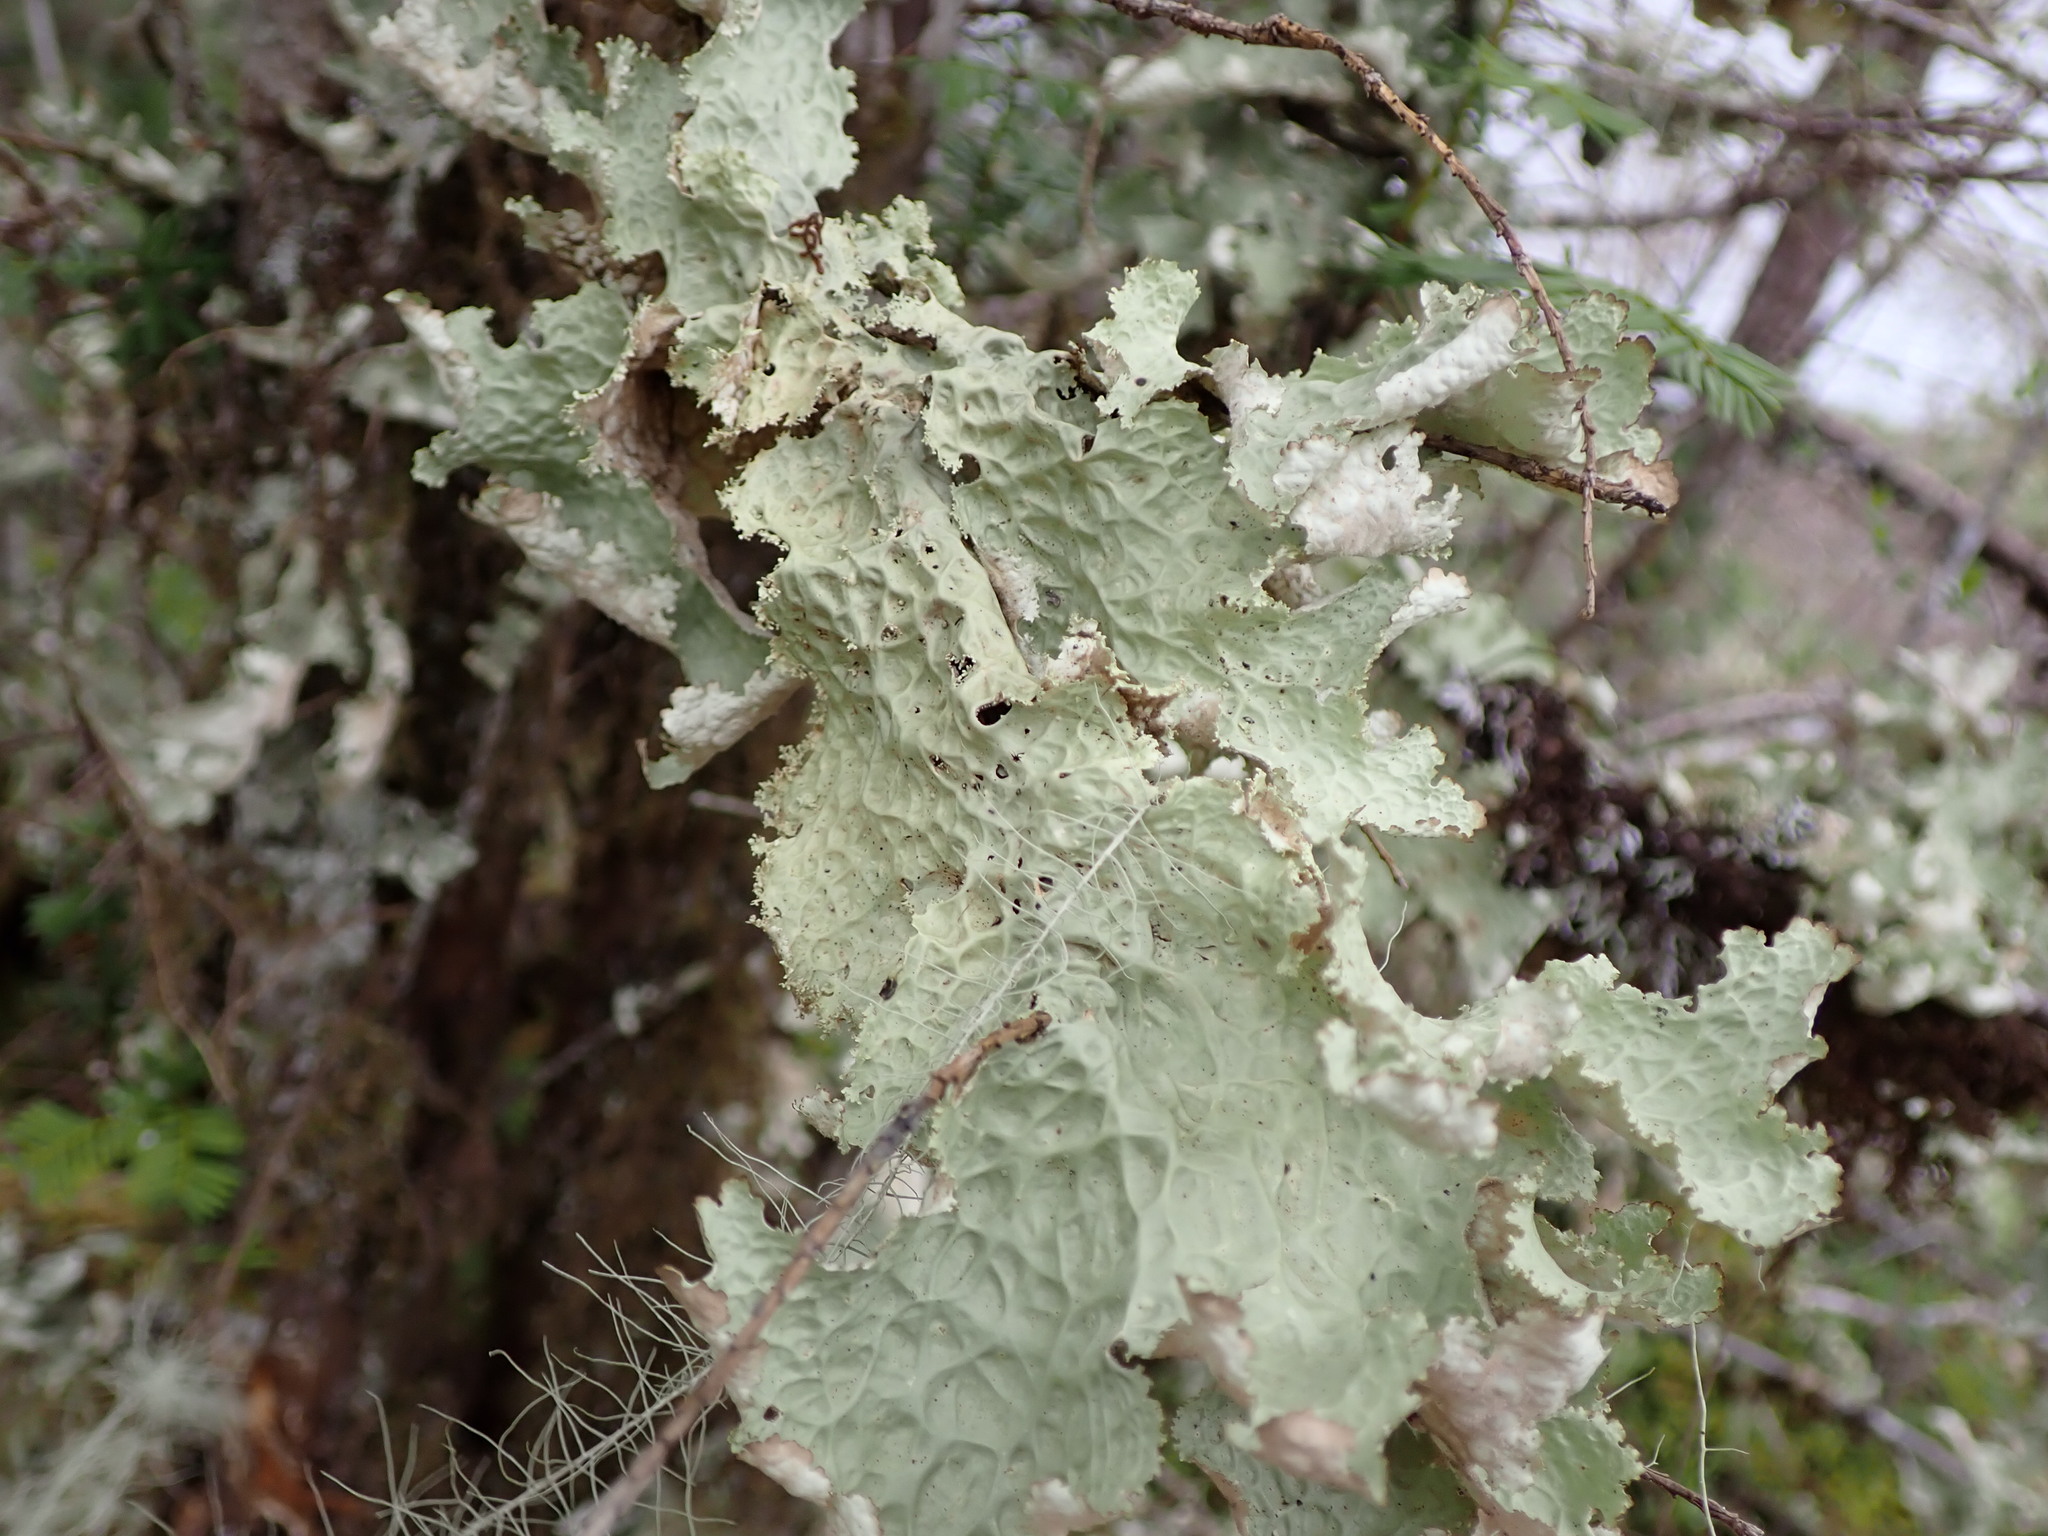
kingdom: Fungi
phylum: Ascomycota
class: Lecanoromycetes
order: Peltigerales
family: Lobariaceae
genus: Lobaria
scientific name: Lobaria oregana
